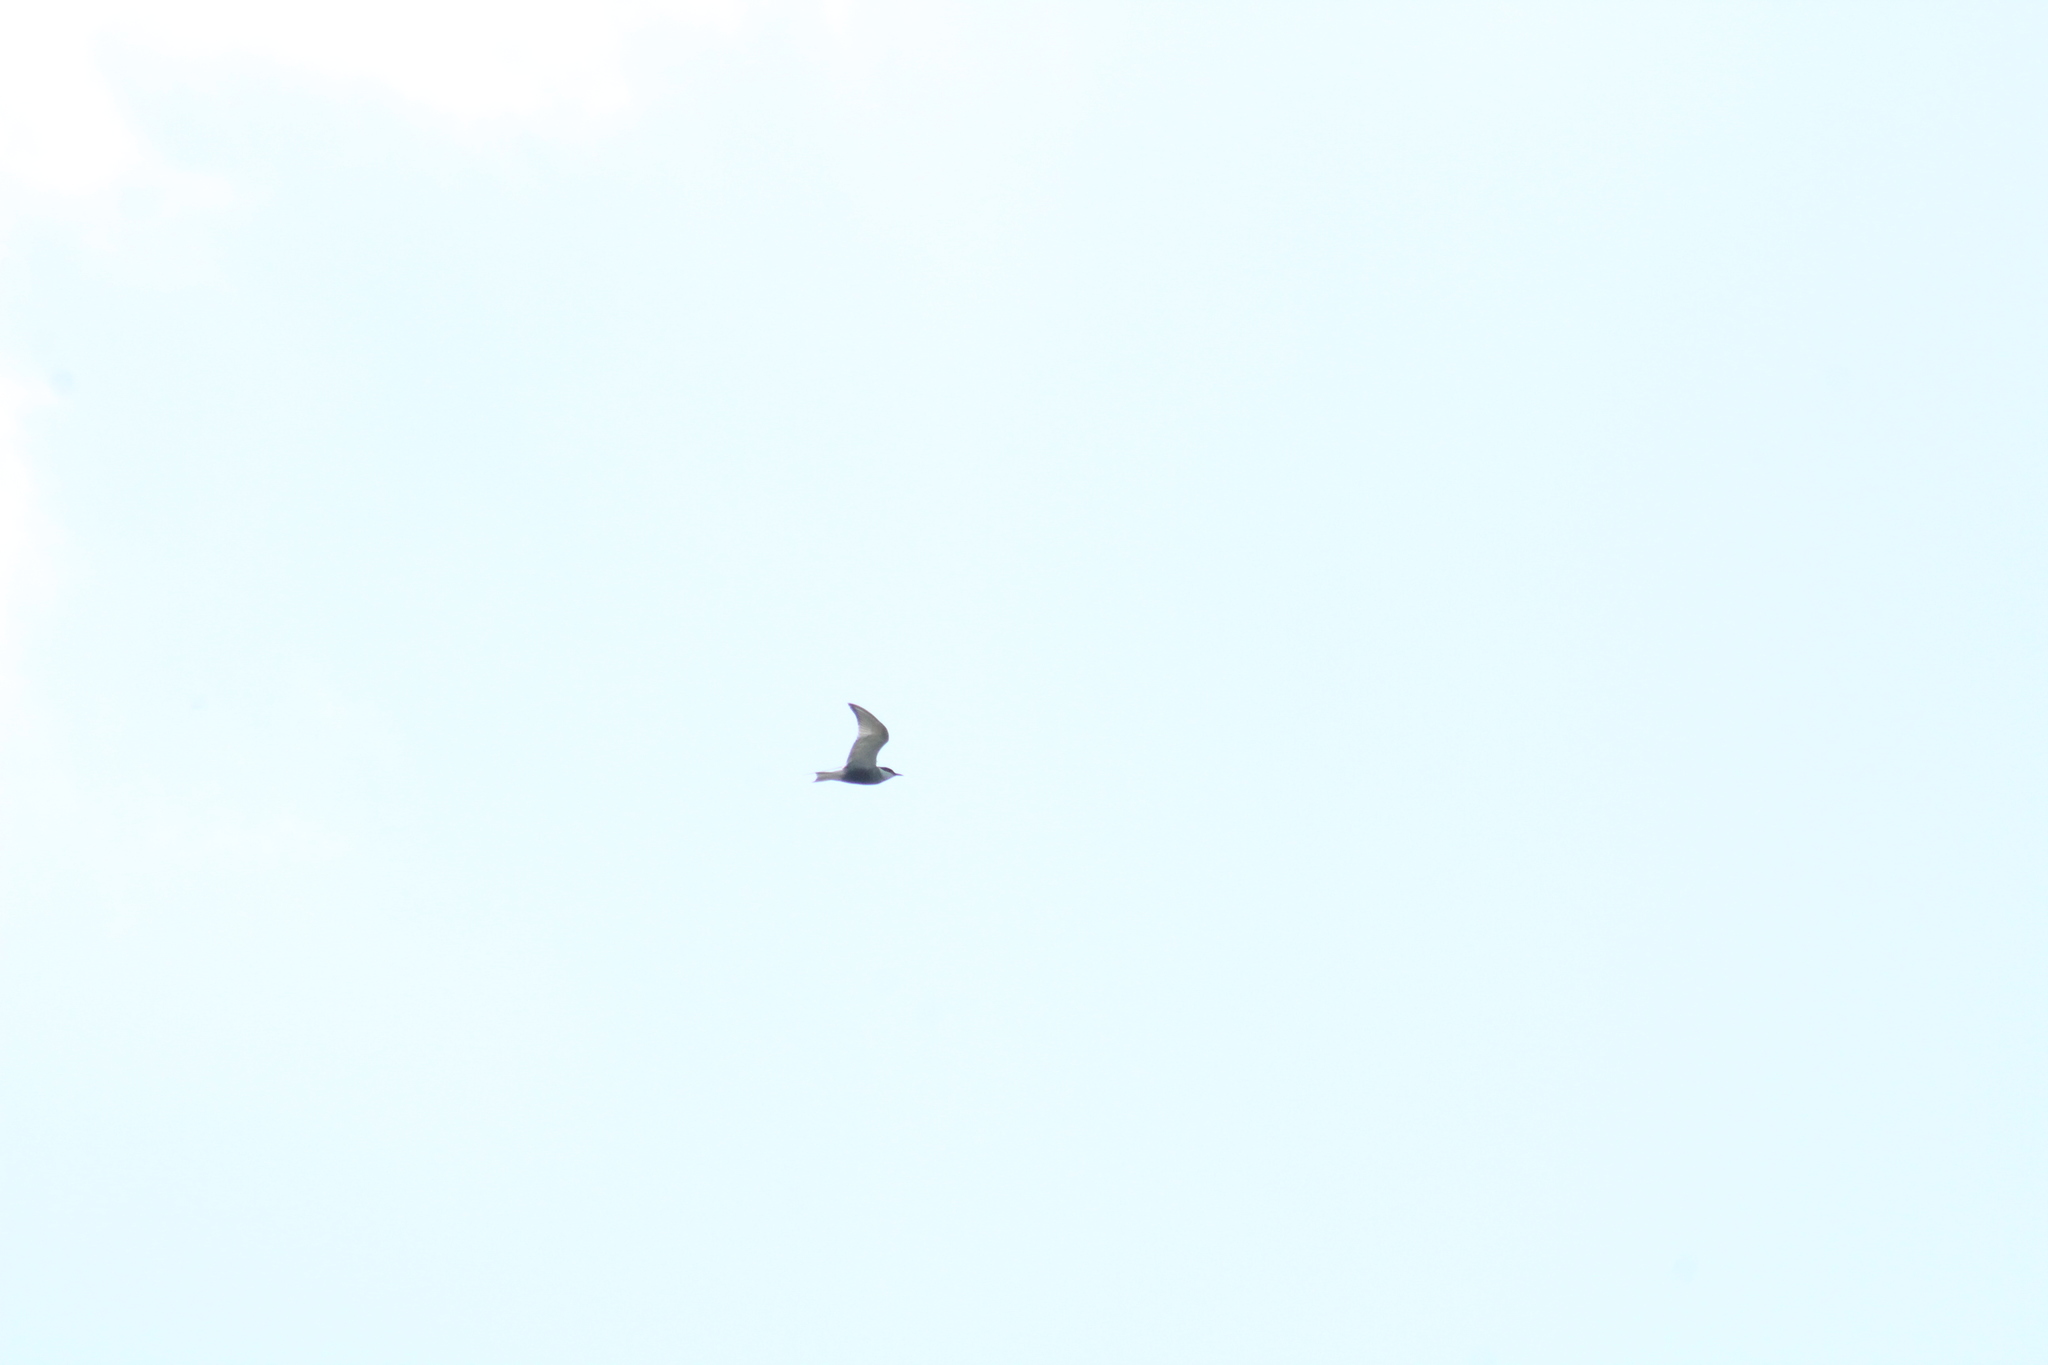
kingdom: Animalia
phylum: Chordata
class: Aves
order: Charadriiformes
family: Laridae
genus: Chlidonias
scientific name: Chlidonias hybrida
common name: Whiskered tern
